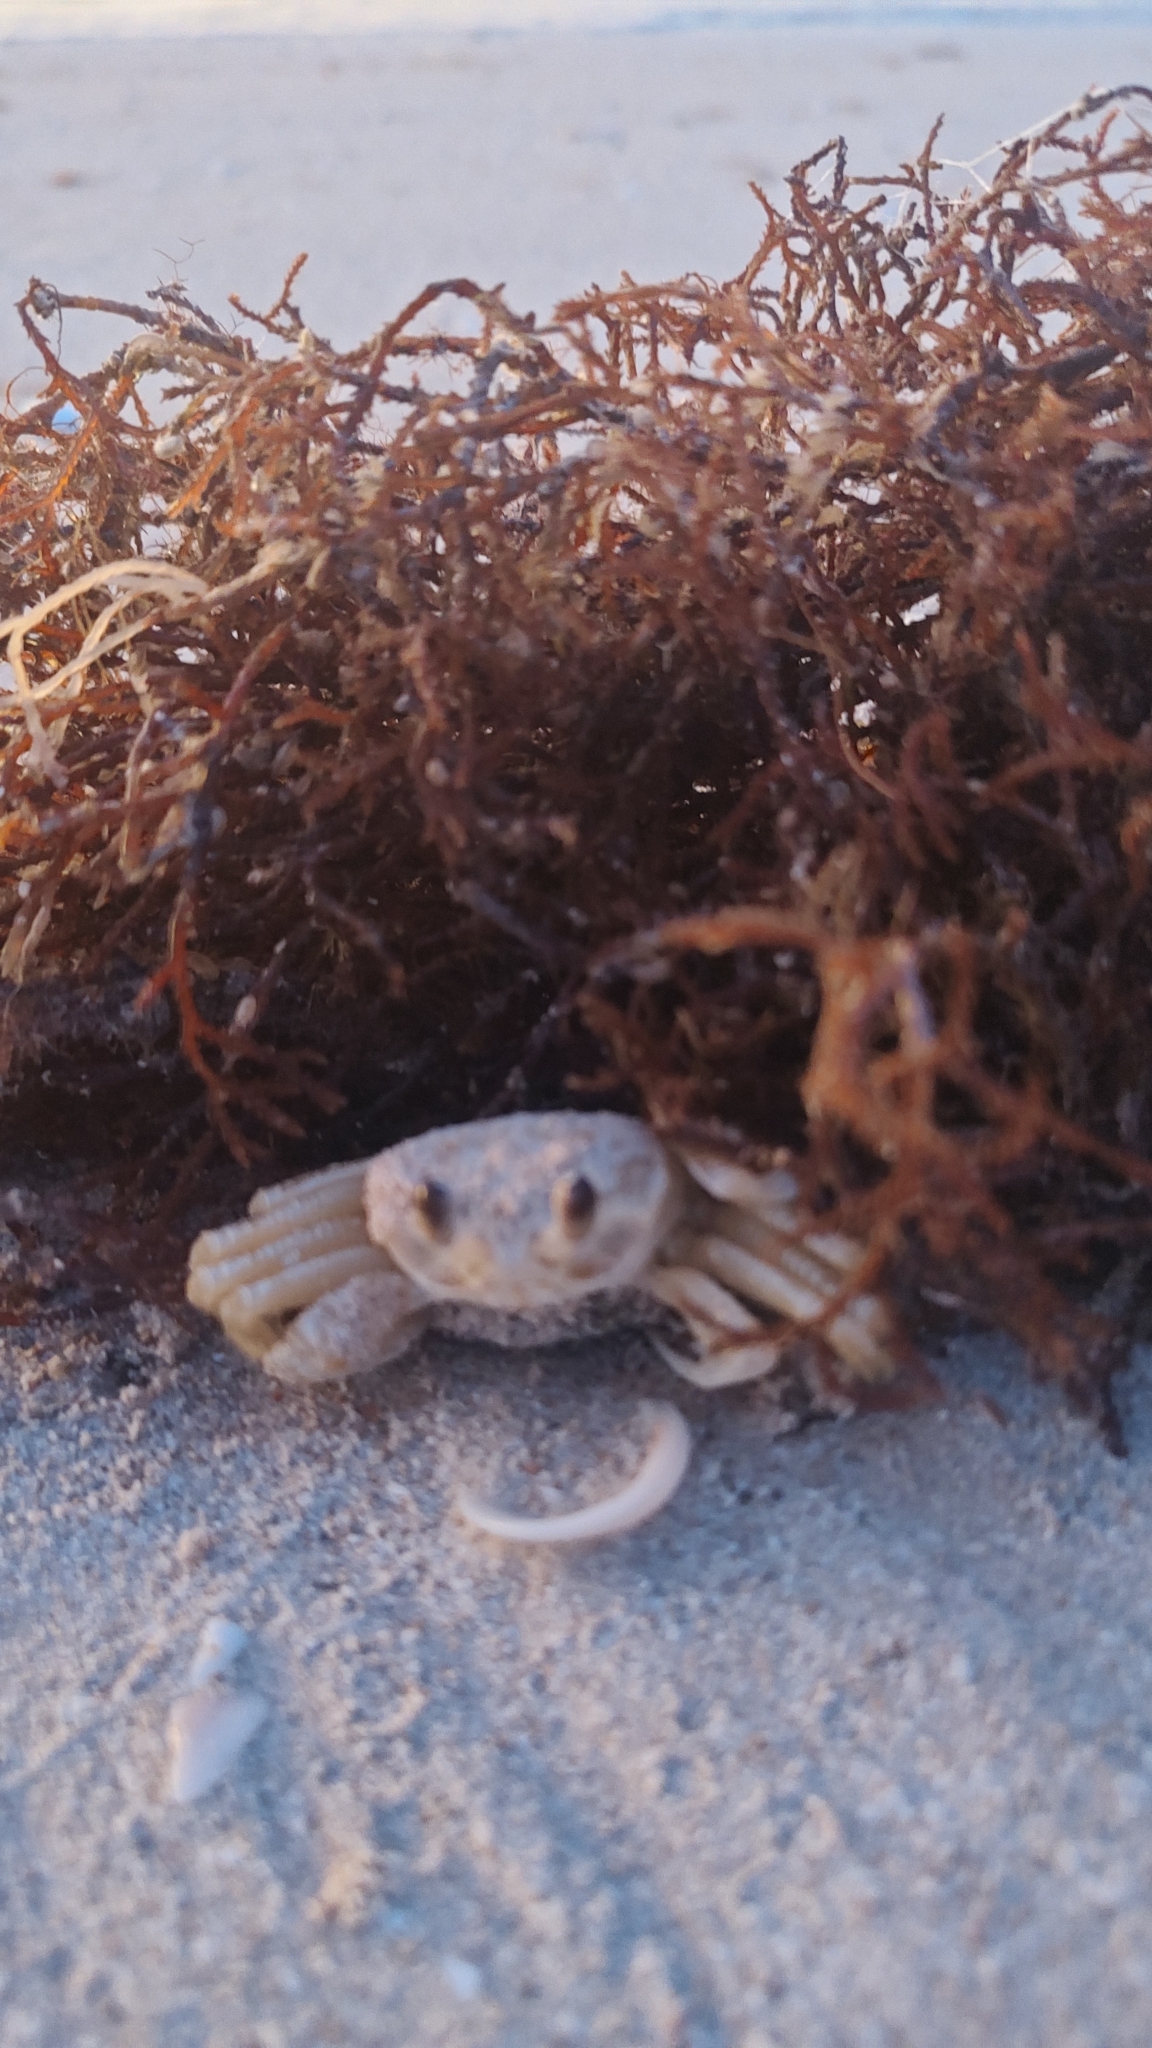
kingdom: Animalia
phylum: Arthropoda
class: Malacostraca
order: Decapoda
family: Ocypodidae
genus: Ocypode
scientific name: Ocypode quadrata
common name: Ghost crab
